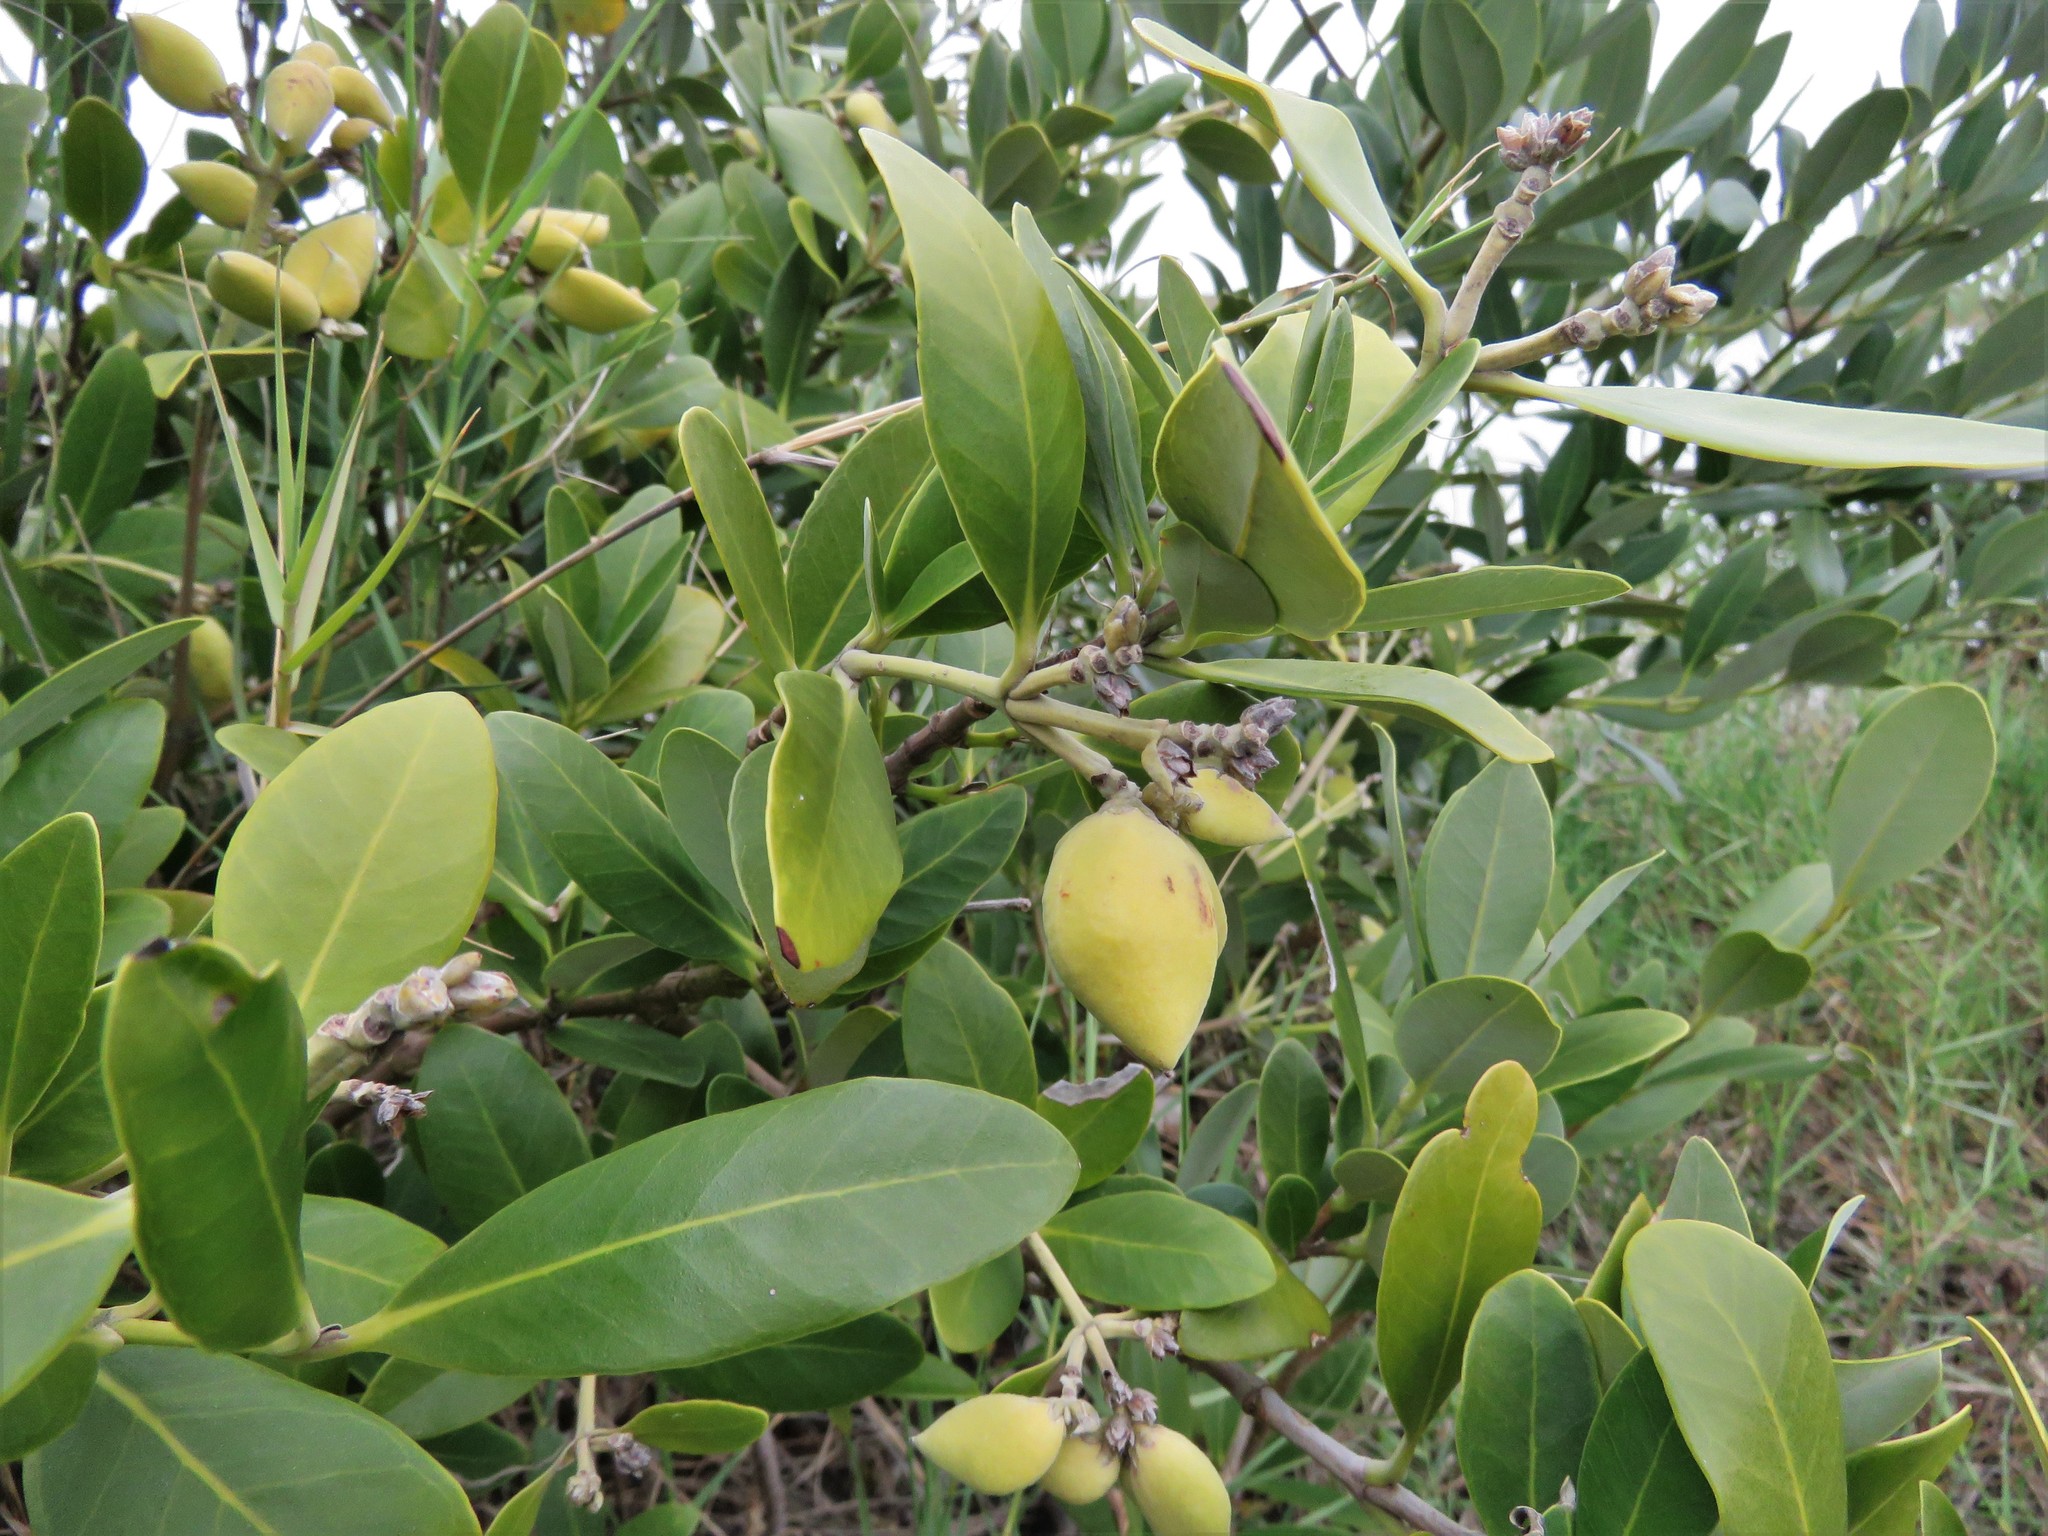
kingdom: Plantae
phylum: Tracheophyta
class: Magnoliopsida
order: Lamiales
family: Acanthaceae
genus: Avicennia
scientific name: Avicennia germinans
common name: Black mangrove
